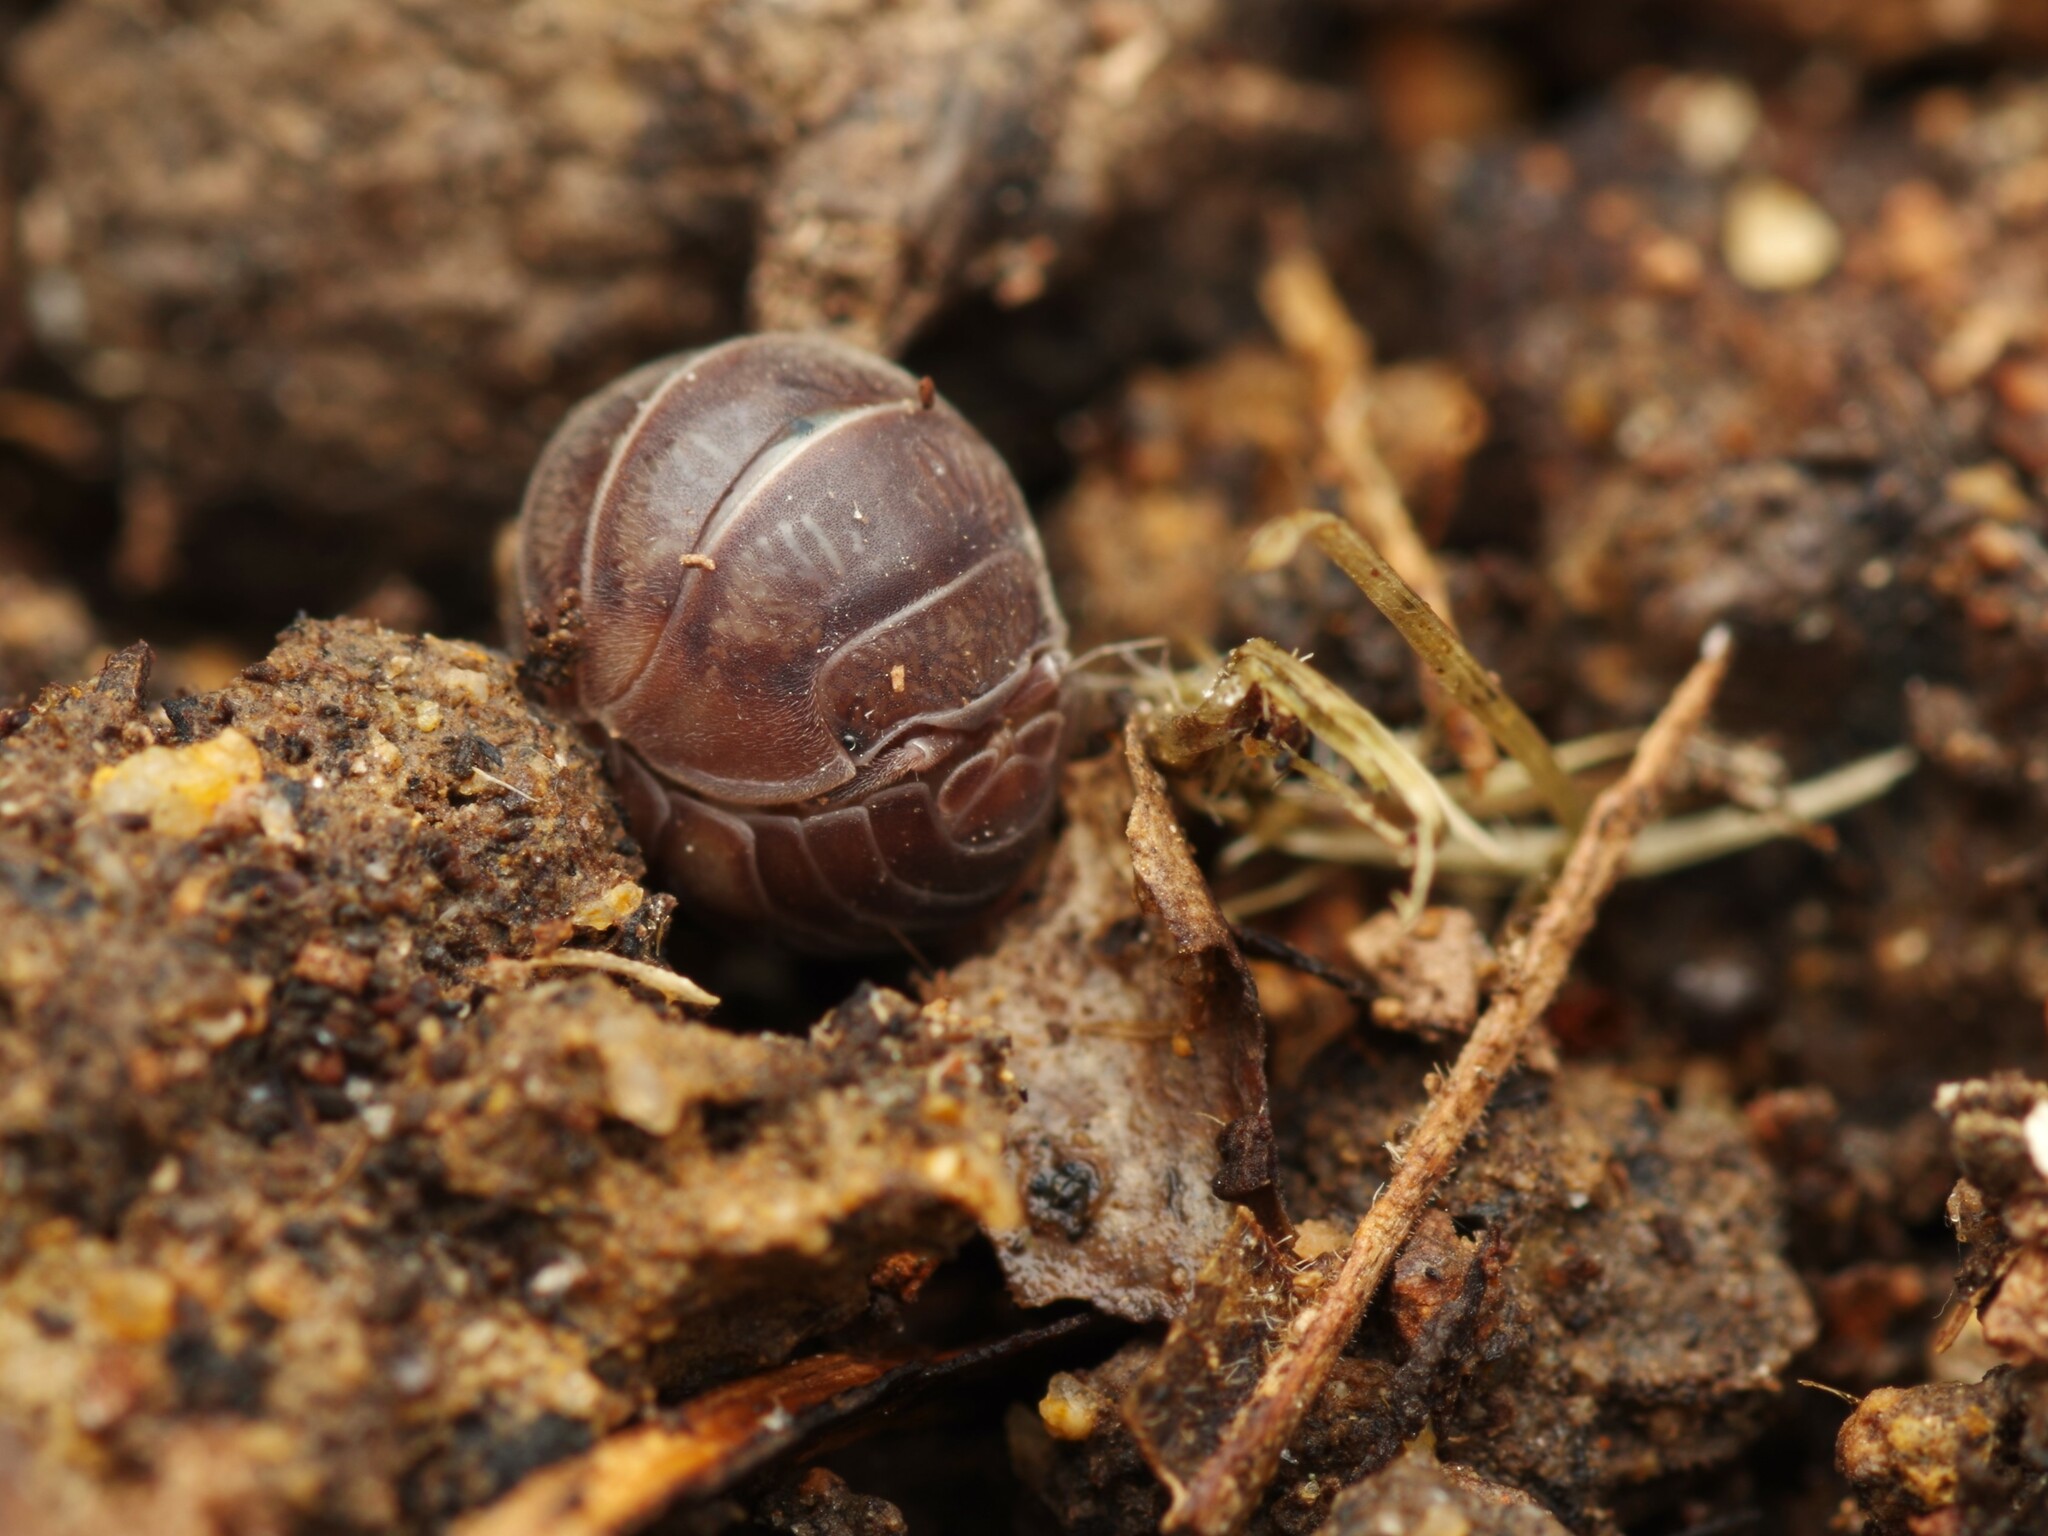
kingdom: Animalia
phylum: Arthropoda
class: Malacostraca
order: Isopoda
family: Armadillidiidae
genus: Eluma
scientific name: Eluma caelata
